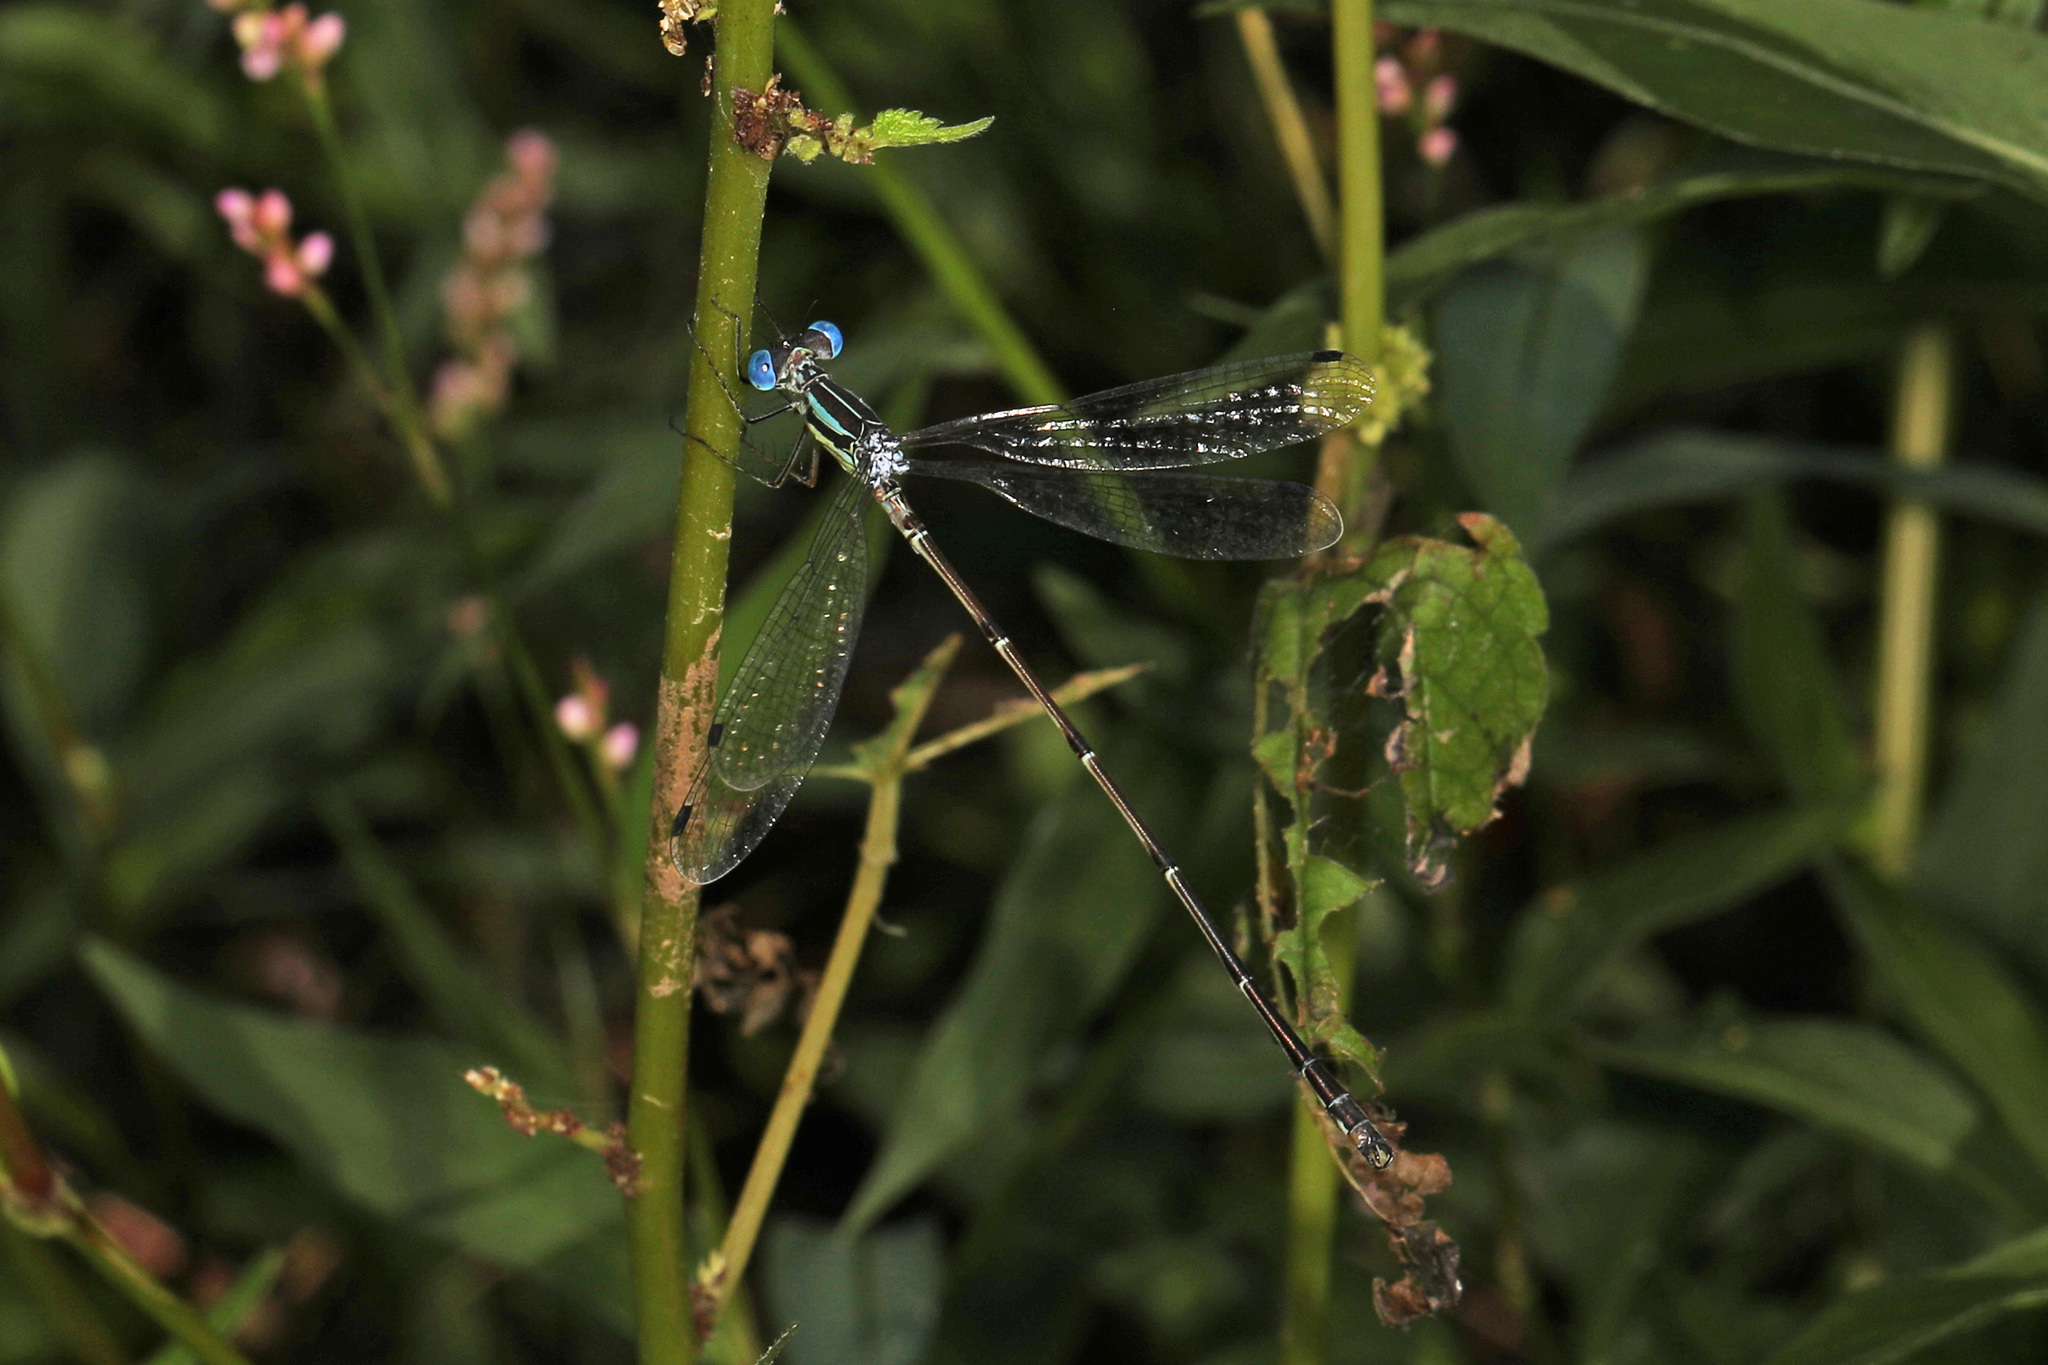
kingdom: Animalia
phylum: Arthropoda
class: Insecta
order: Odonata
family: Lestidae
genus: Lestes
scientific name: Lestes rectangularis
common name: Slender spreadwing
